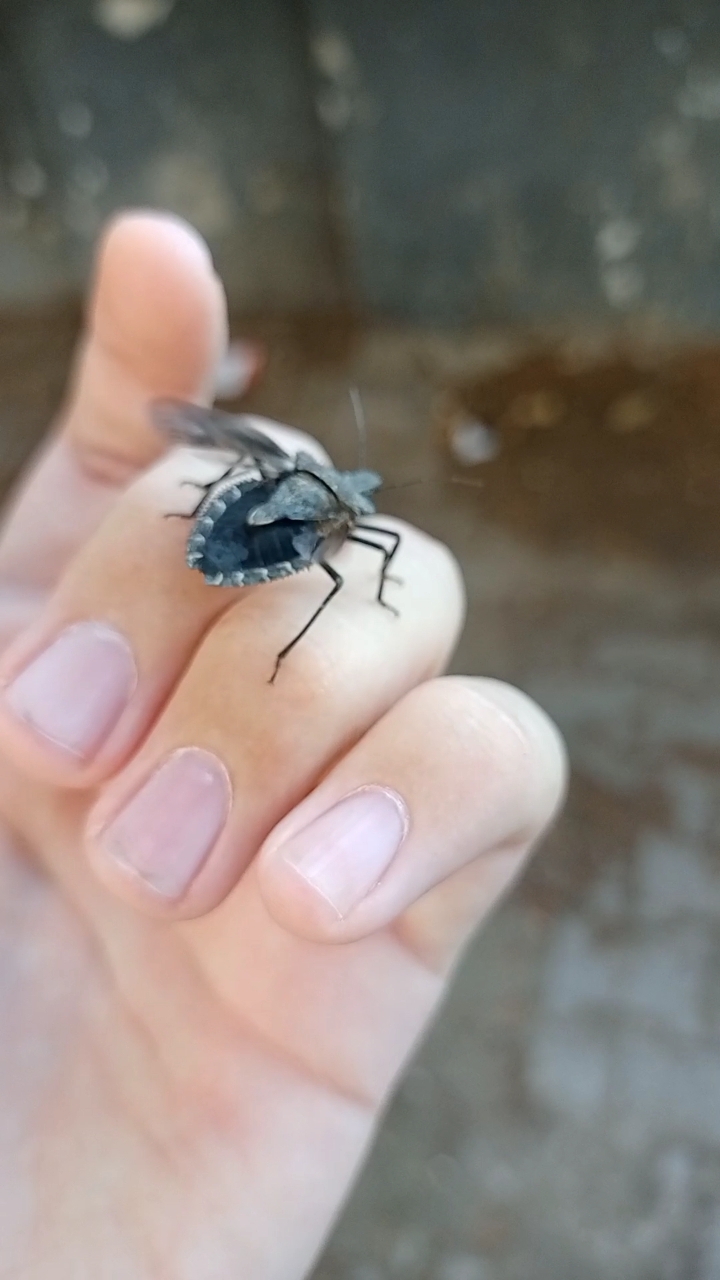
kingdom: Animalia
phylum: Arthropoda
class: Insecta
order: Hemiptera
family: Pentatomidae
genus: Mustha
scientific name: Mustha spinosula
